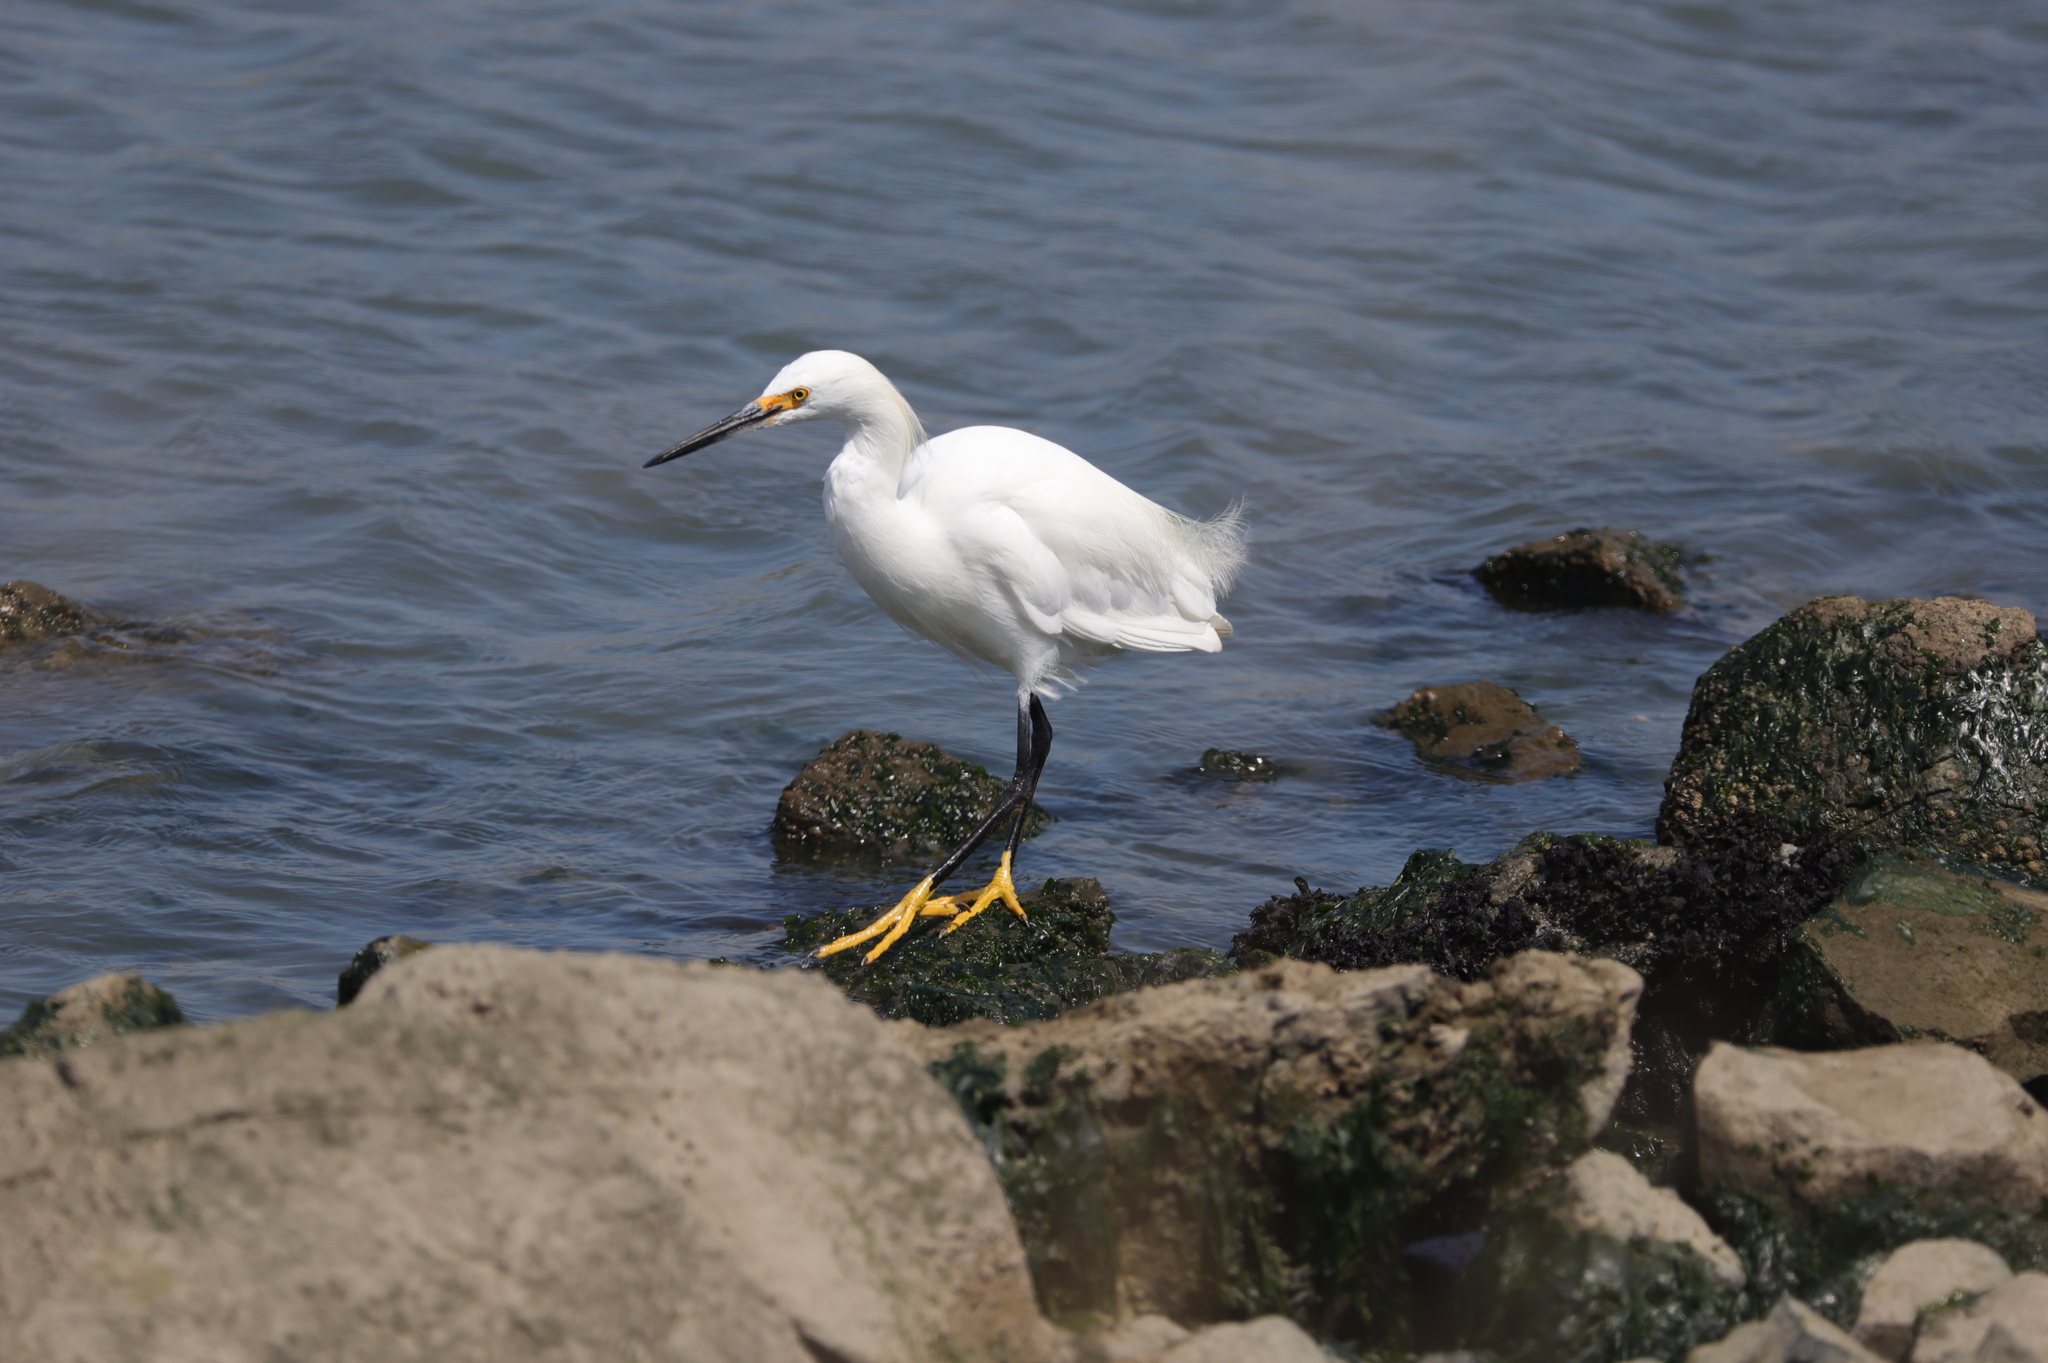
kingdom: Animalia
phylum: Chordata
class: Aves
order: Pelecaniformes
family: Ardeidae
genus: Egretta
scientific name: Egretta thula
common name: Snowy egret
